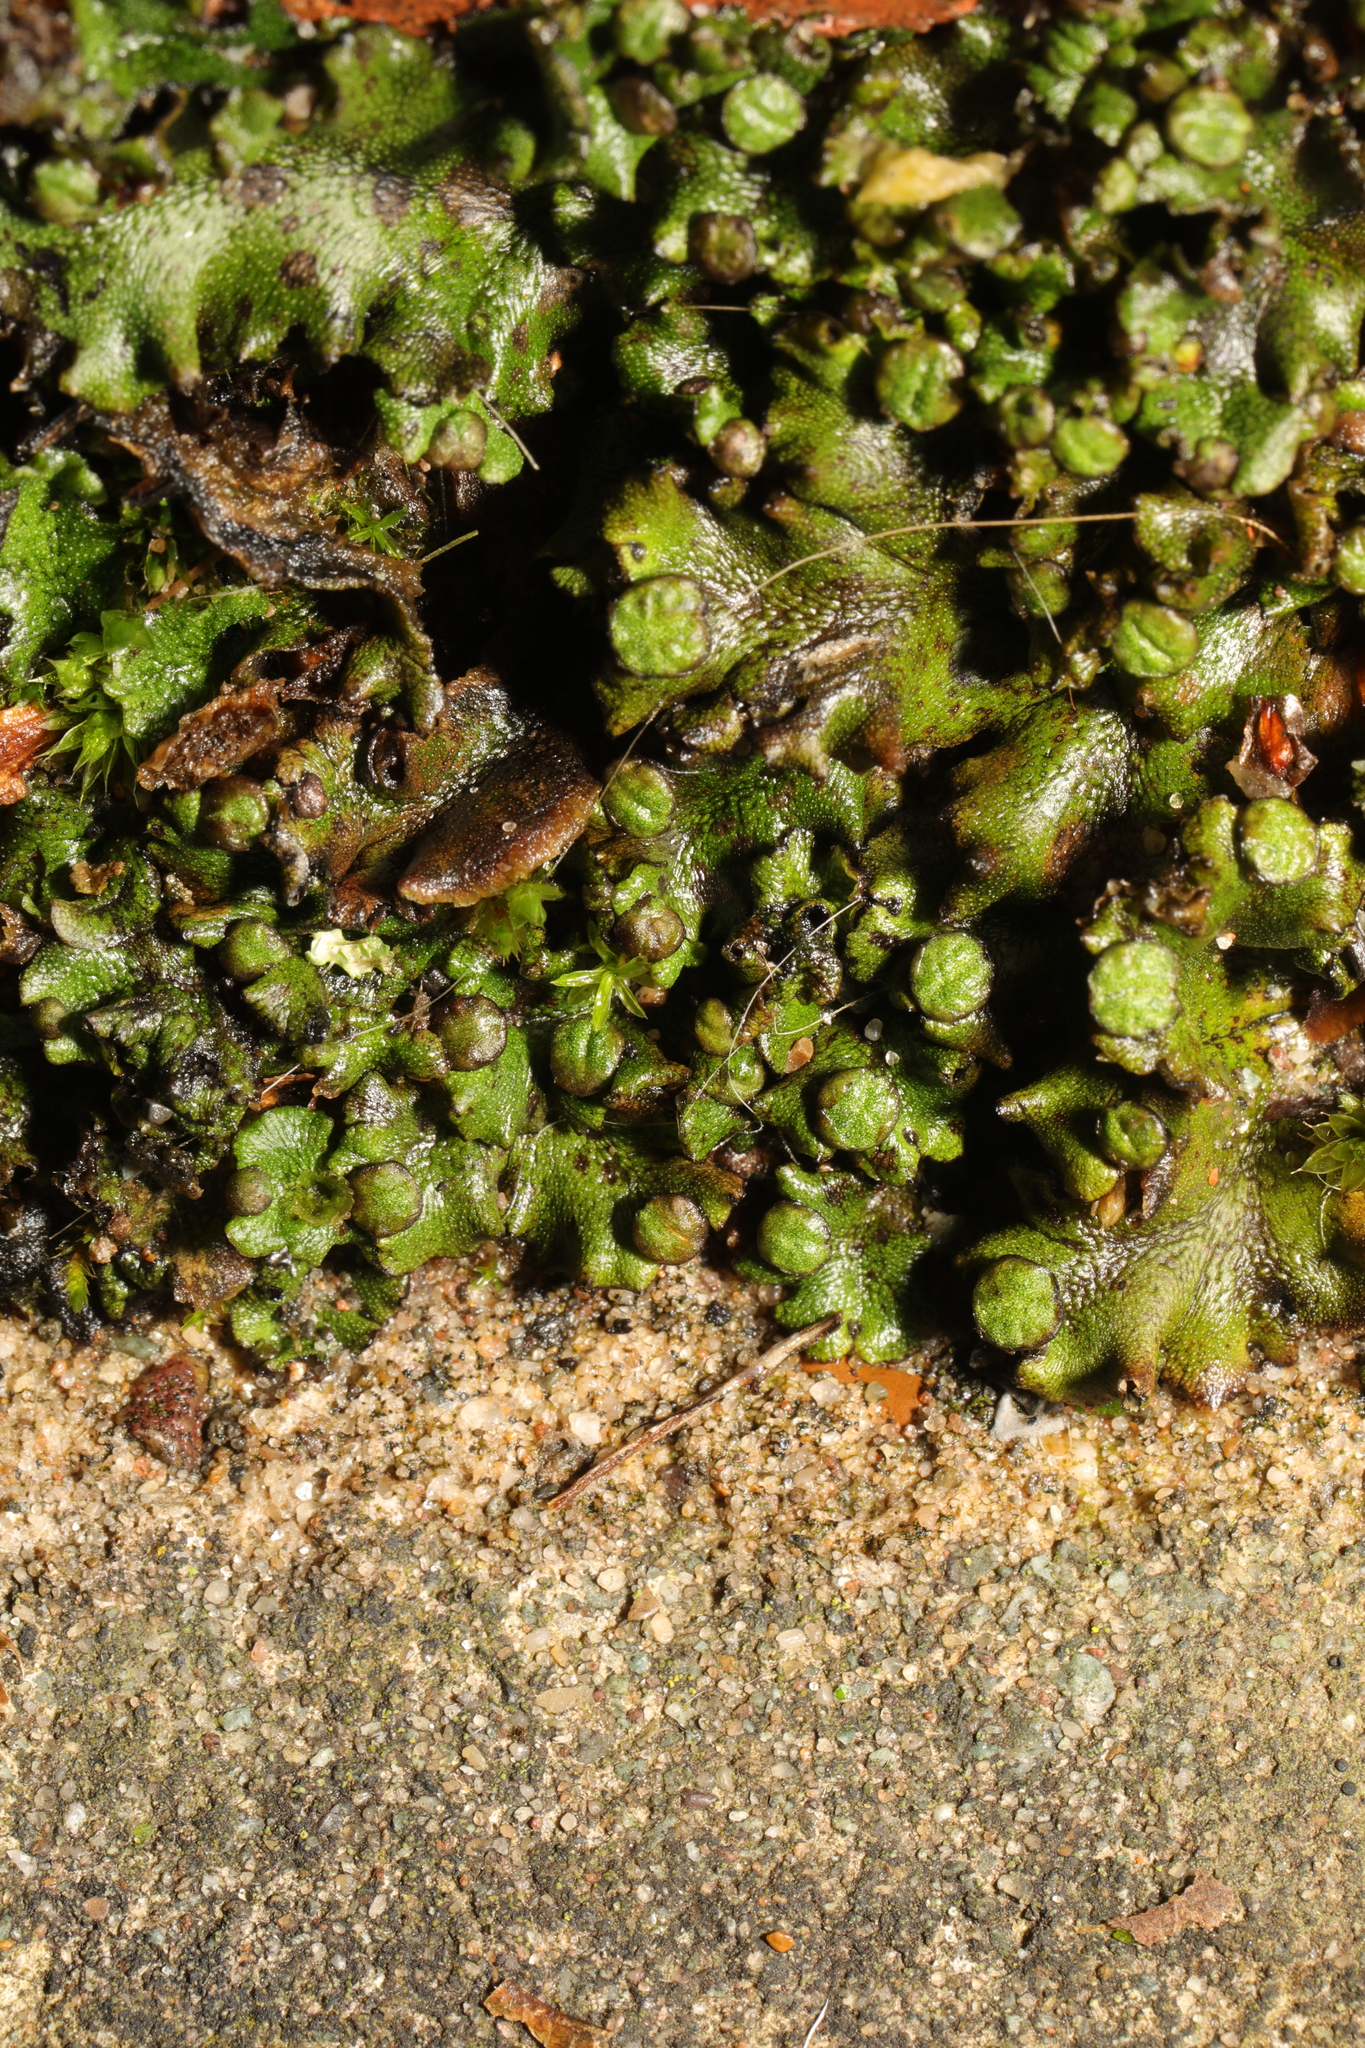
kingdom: Plantae
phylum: Marchantiophyta
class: Marchantiopsida
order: Marchantiales
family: Marchantiaceae
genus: Marchantia
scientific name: Marchantia polymorpha
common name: Common liverwort
